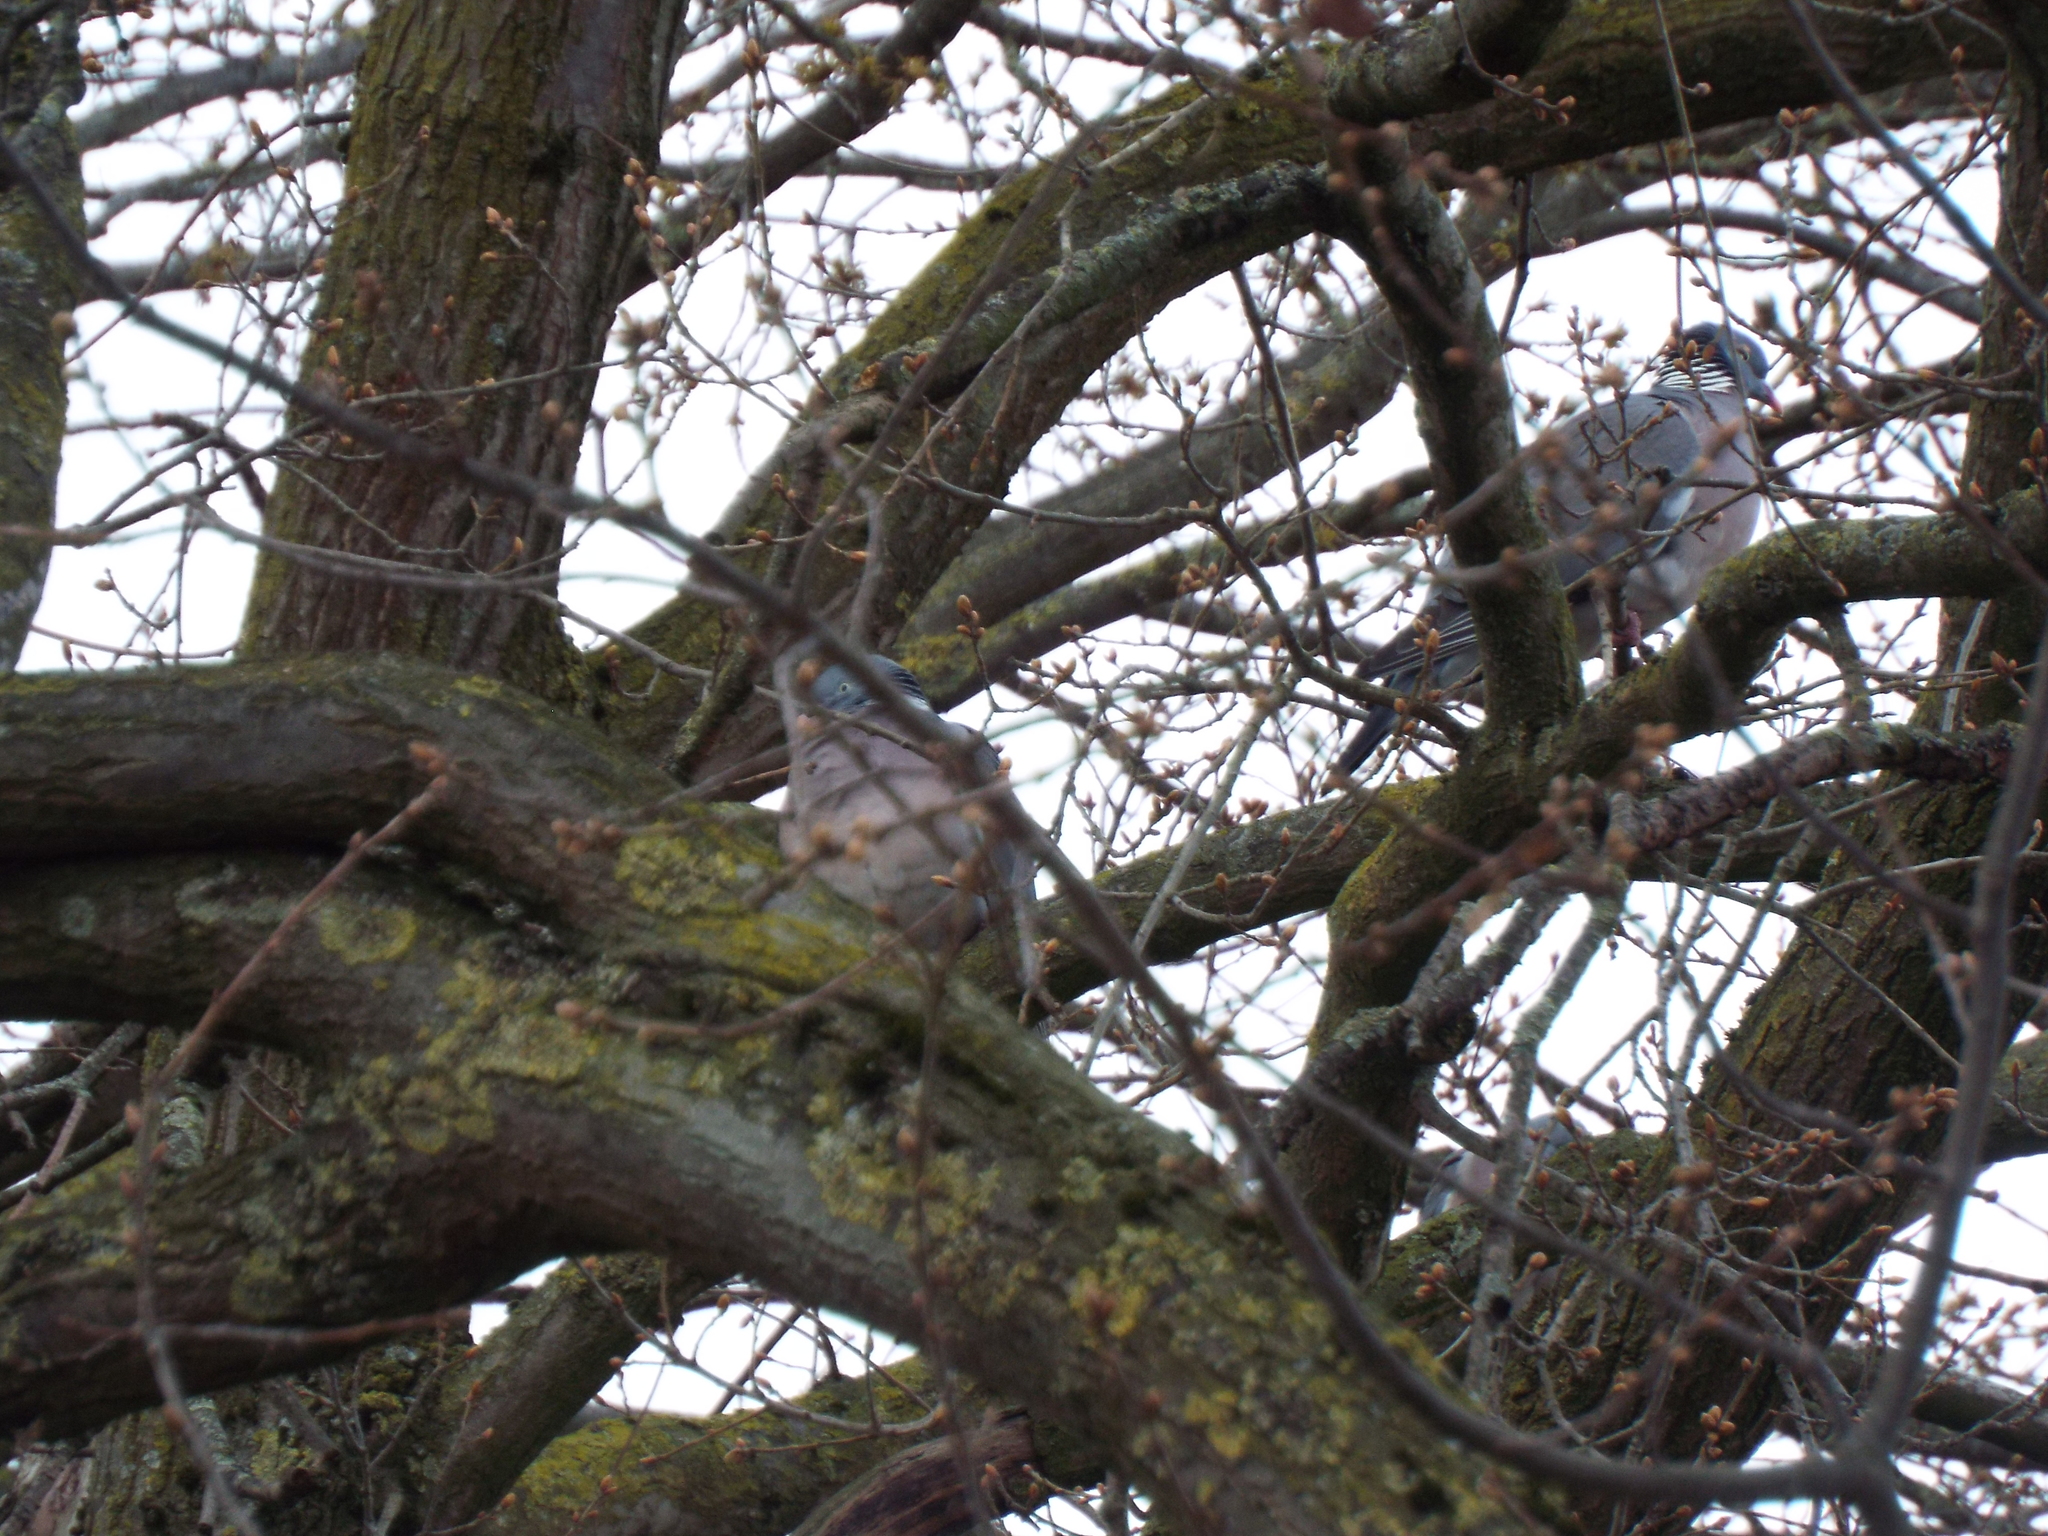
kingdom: Animalia
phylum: Chordata
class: Aves
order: Columbiformes
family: Columbidae
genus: Columba
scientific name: Columba palumbus
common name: Common wood pigeon
